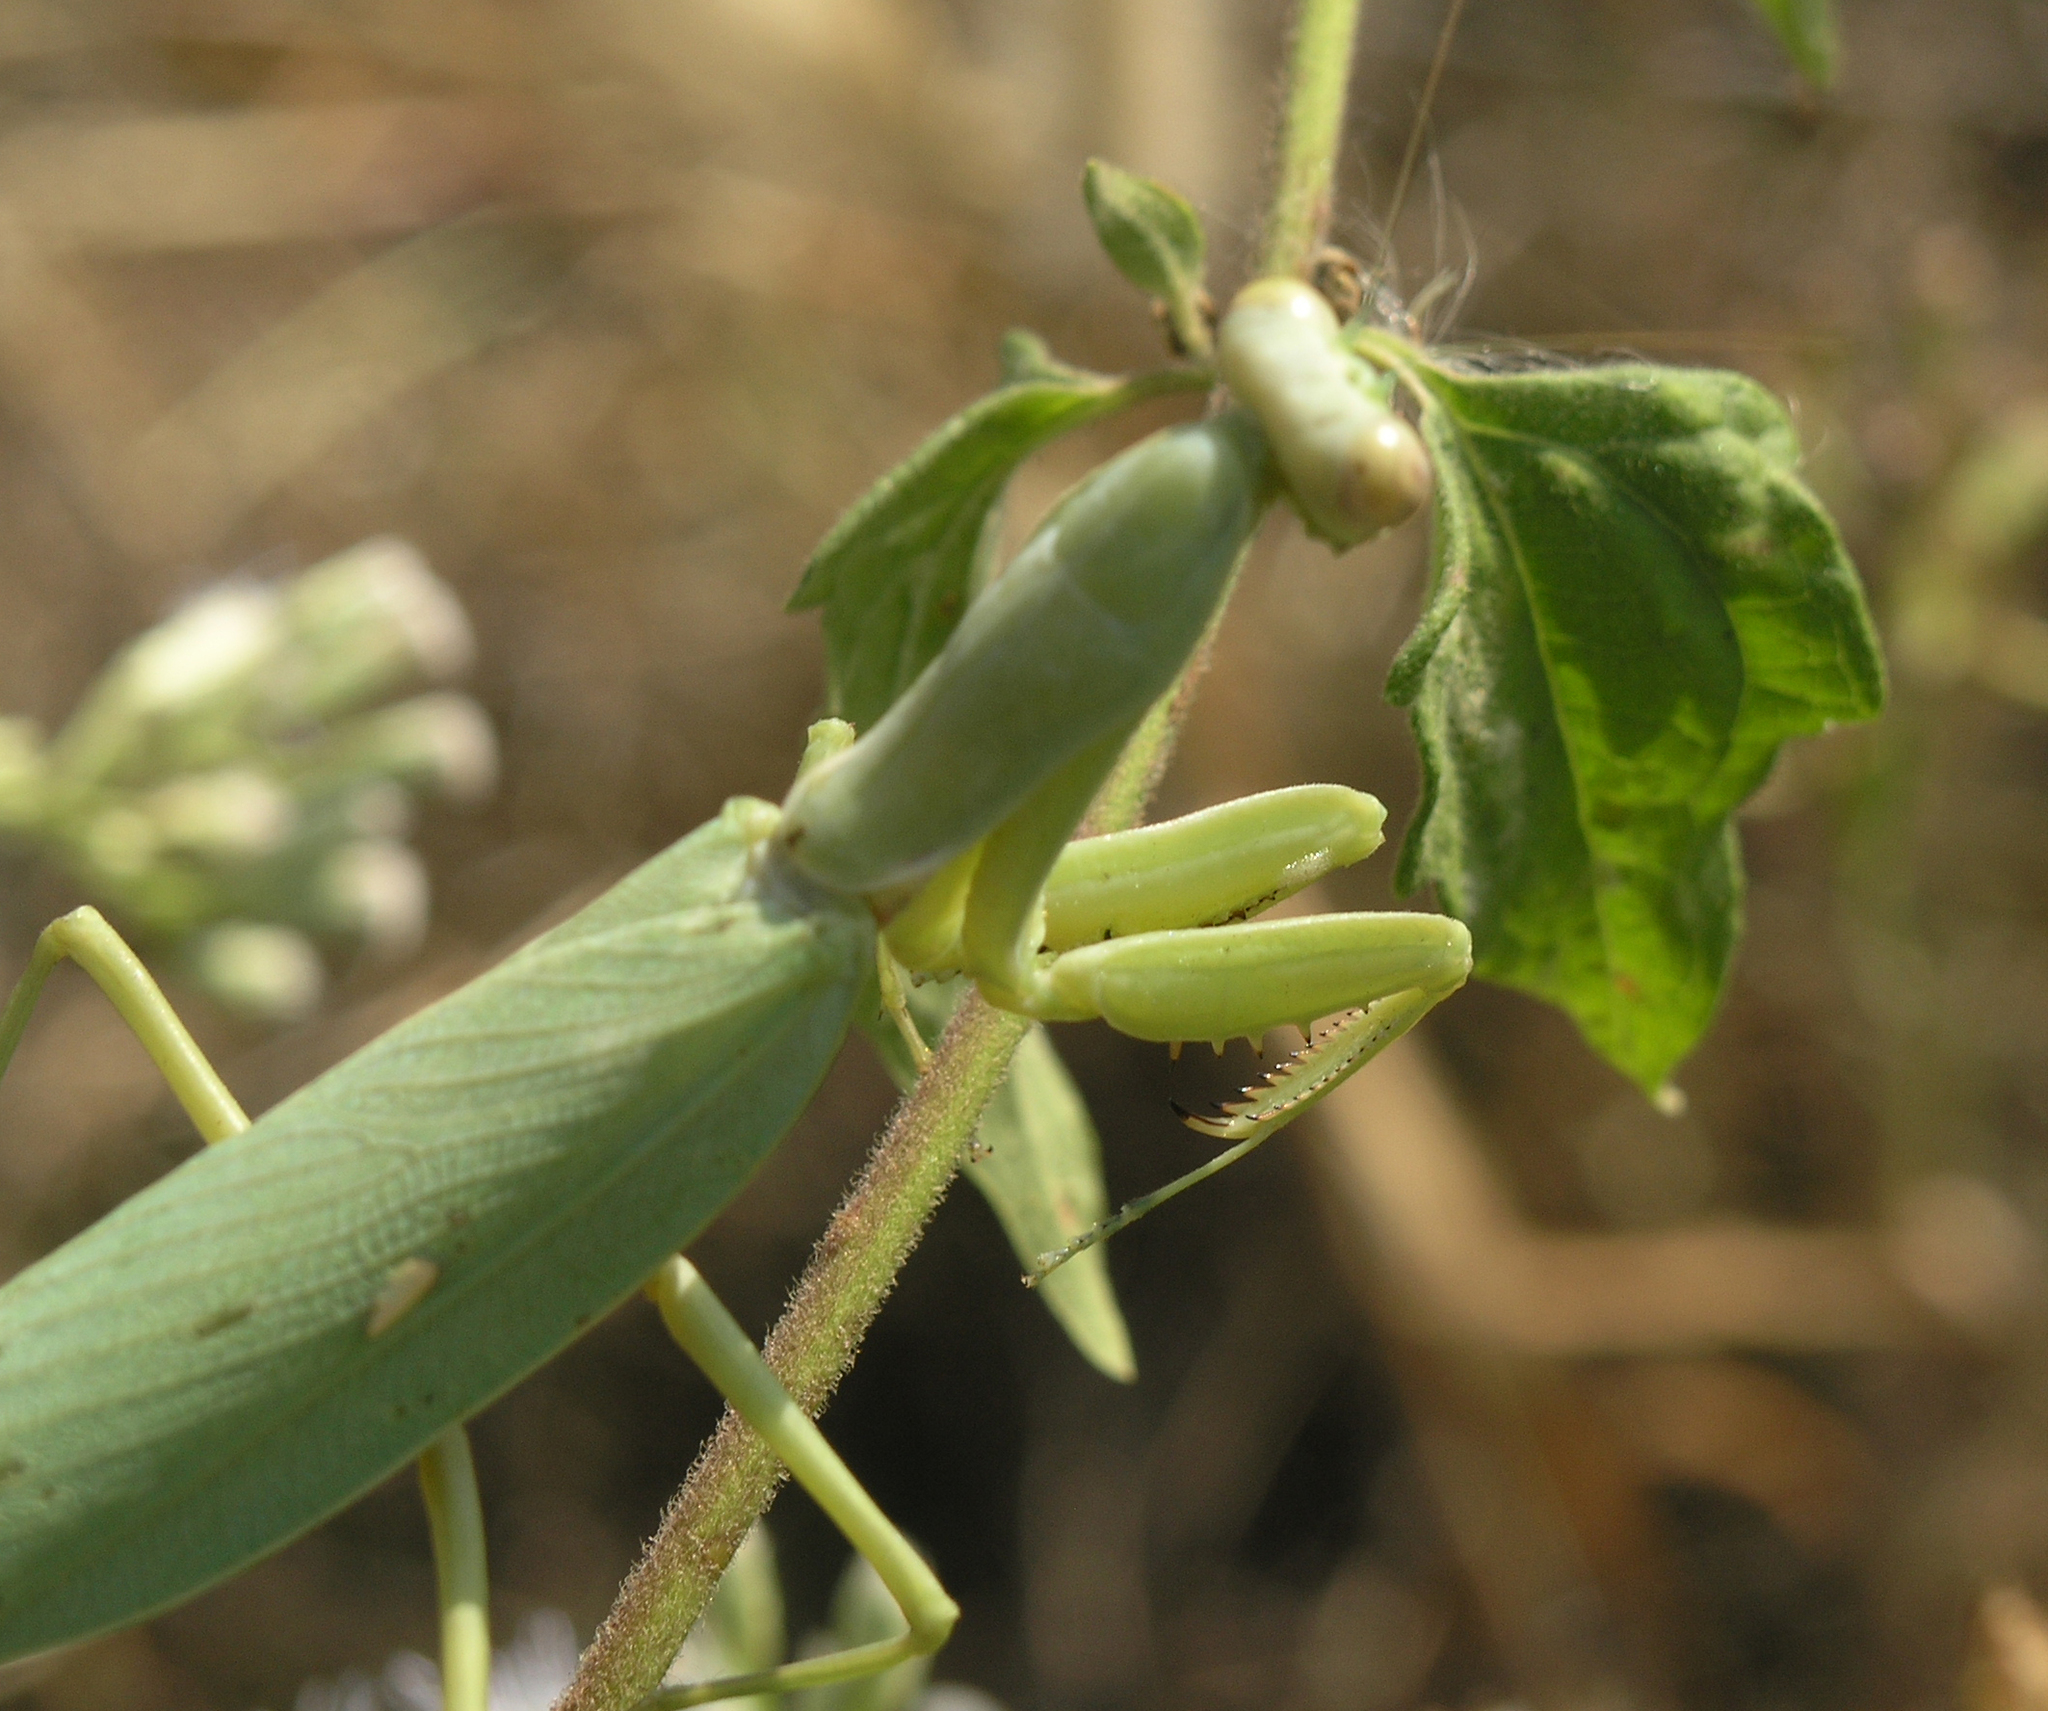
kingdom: Animalia
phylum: Arthropoda
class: Insecta
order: Mantodea
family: Mantidae
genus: Hierodula
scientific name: Hierodula patellifera
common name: Asian mantis
